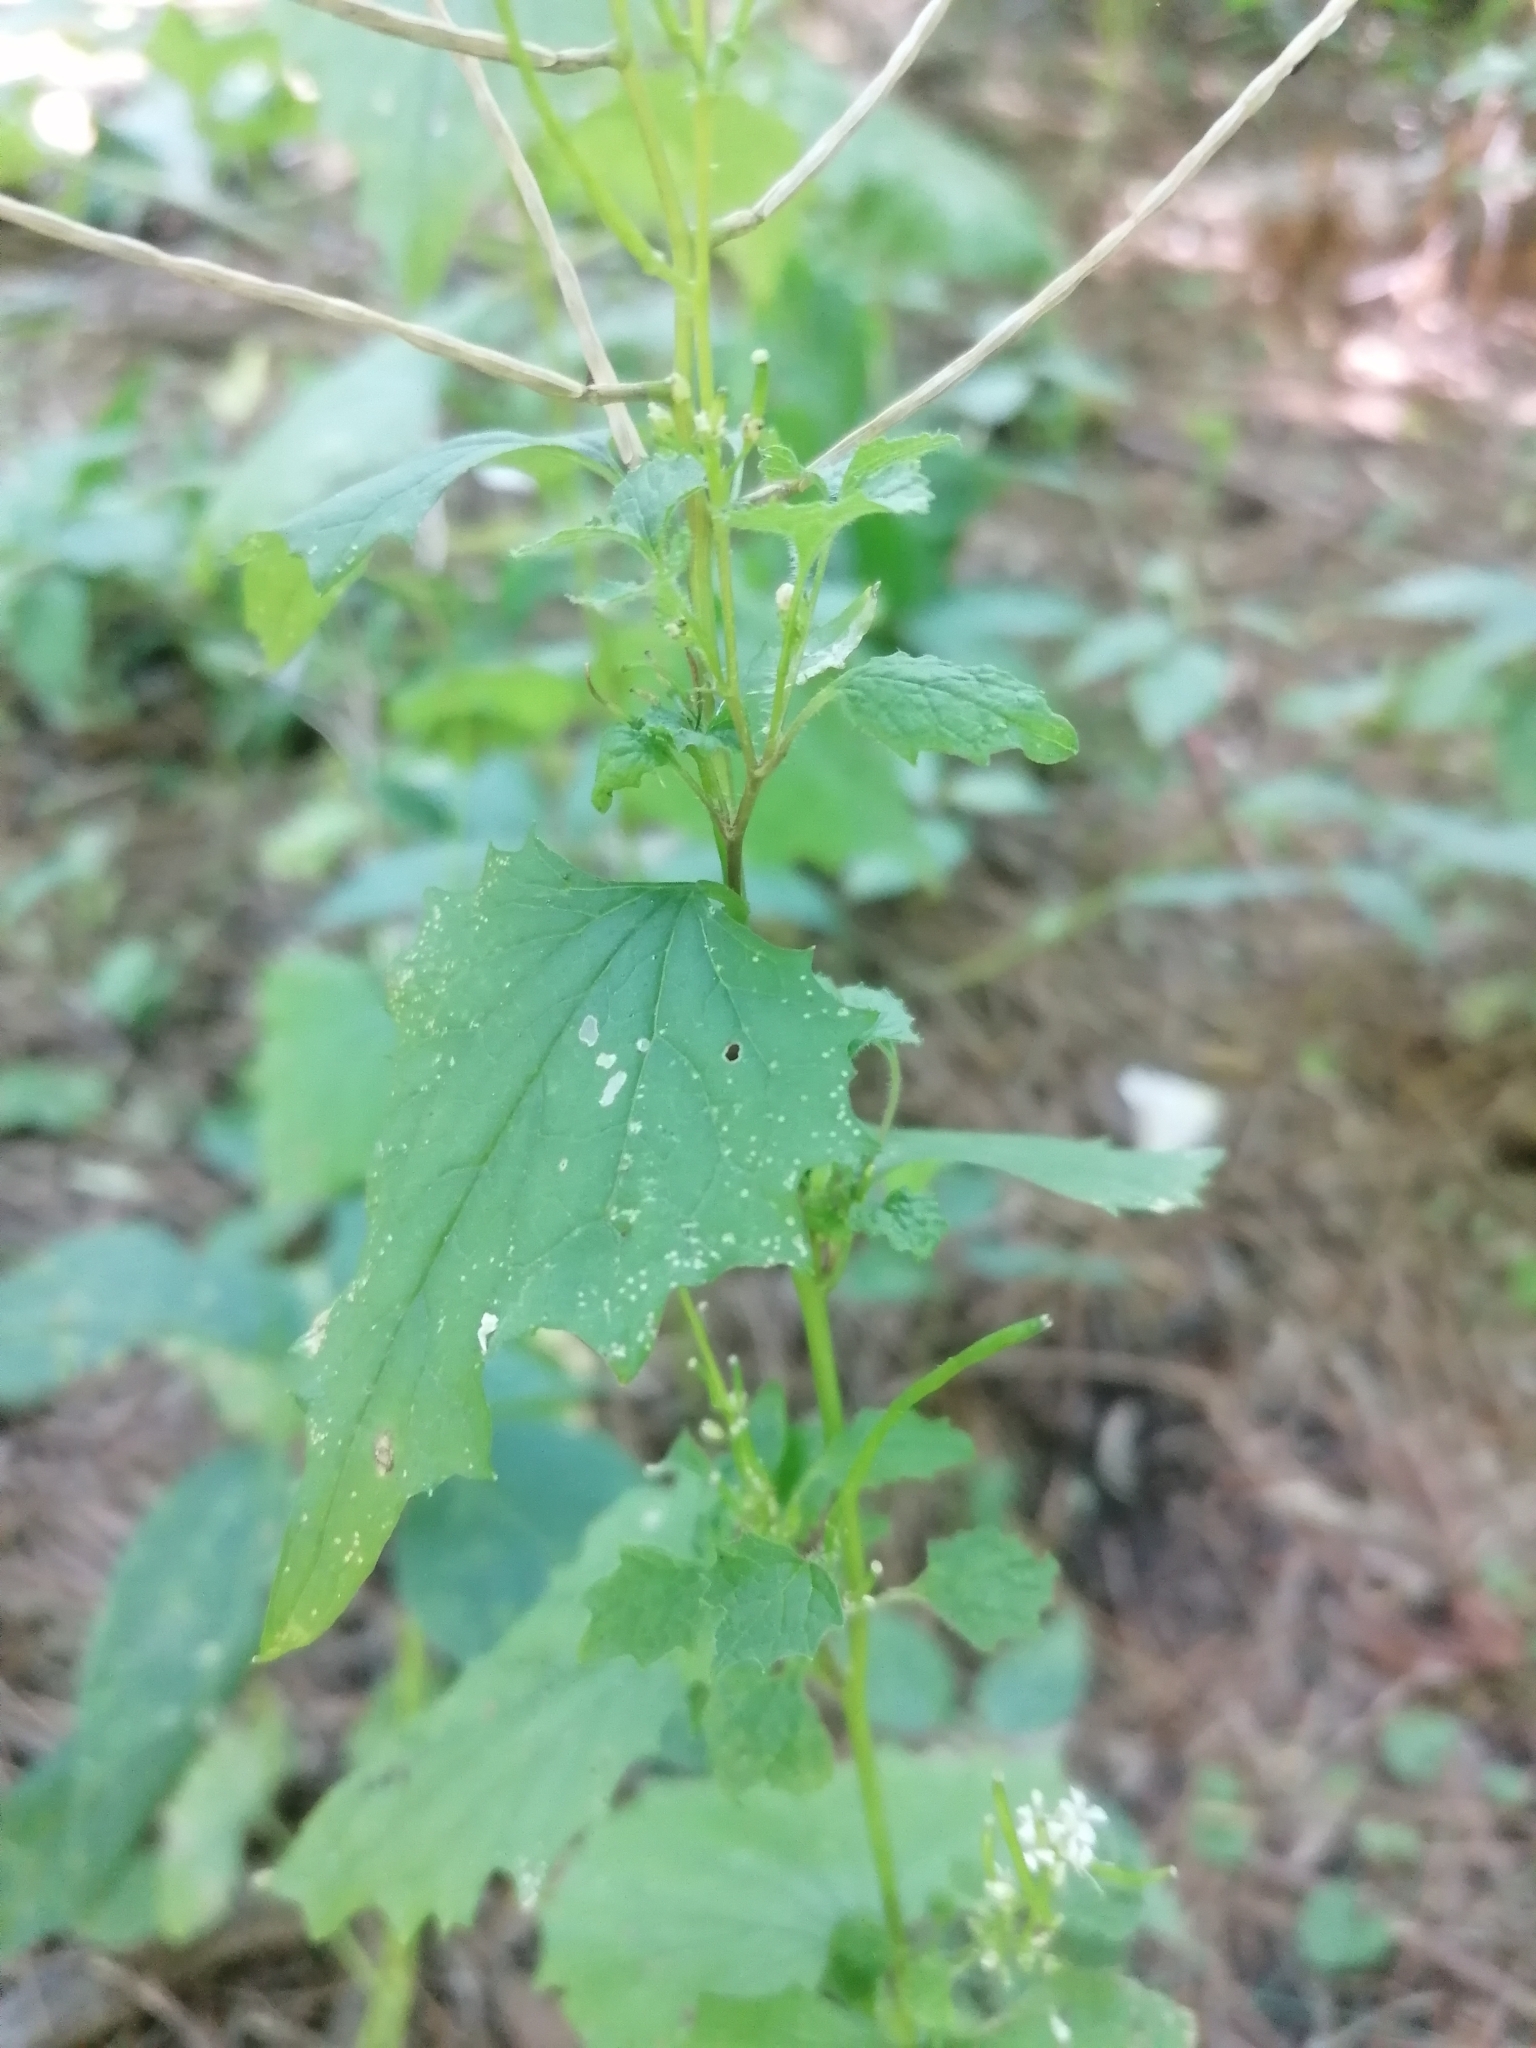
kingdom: Plantae
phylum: Tracheophyta
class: Magnoliopsida
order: Brassicales
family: Brassicaceae
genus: Alliaria
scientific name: Alliaria petiolata
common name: Garlic mustard
